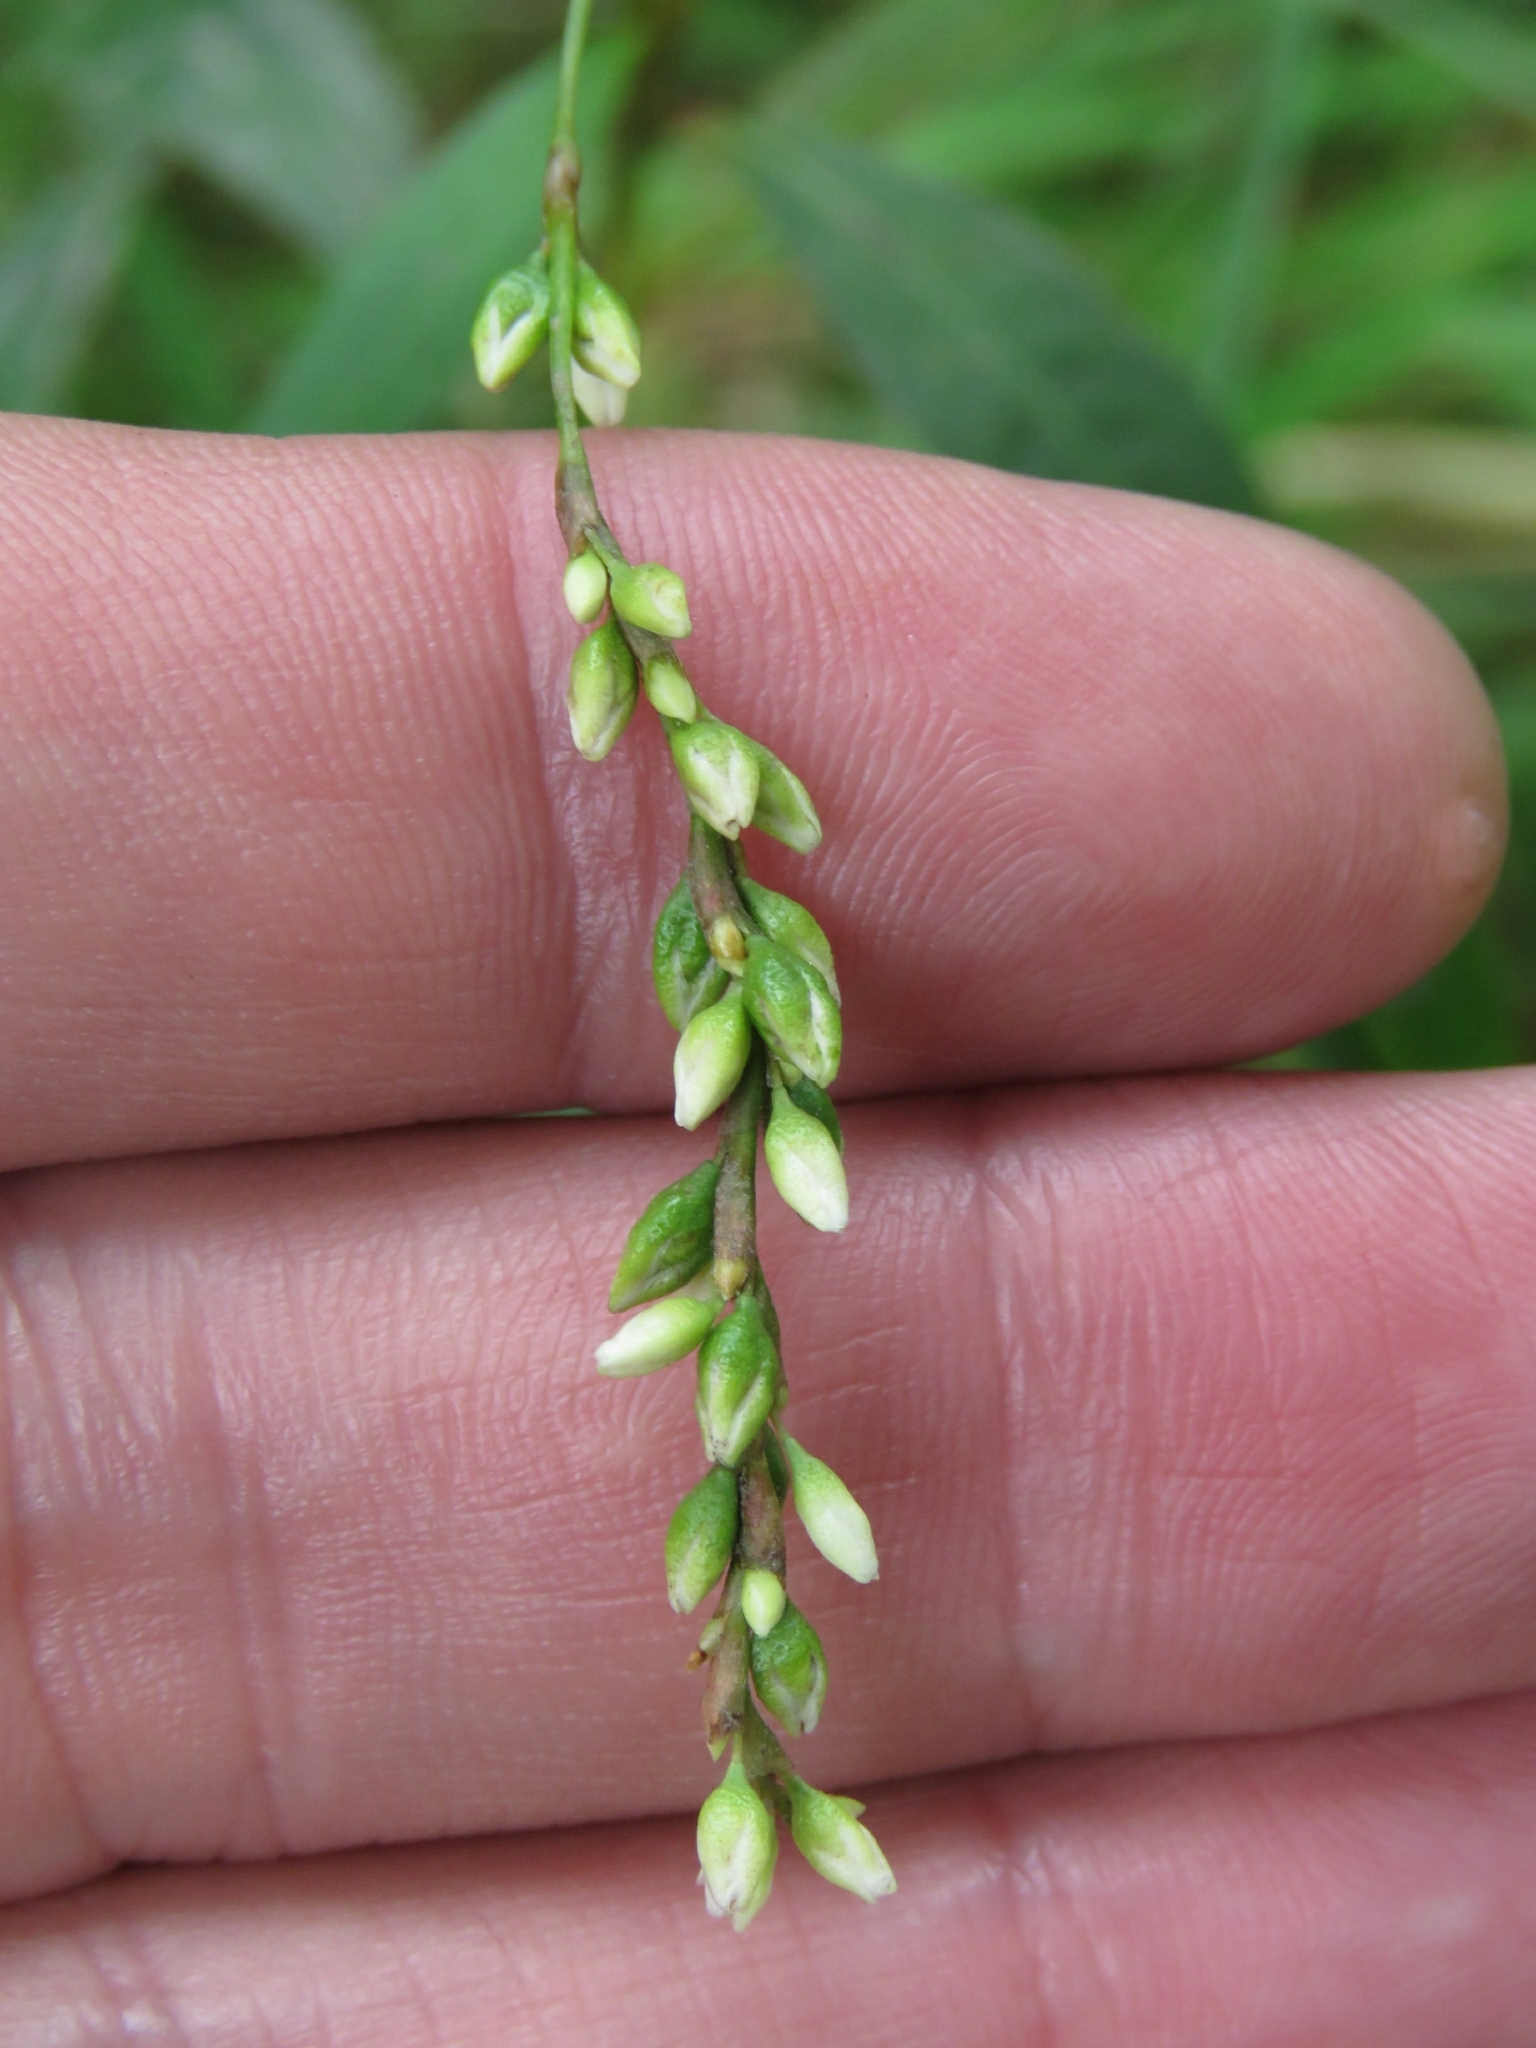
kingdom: Plantae
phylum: Tracheophyta
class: Magnoliopsida
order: Caryophyllales
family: Polygonaceae
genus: Persicaria
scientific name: Persicaria punctata
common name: Dotted smartweed
